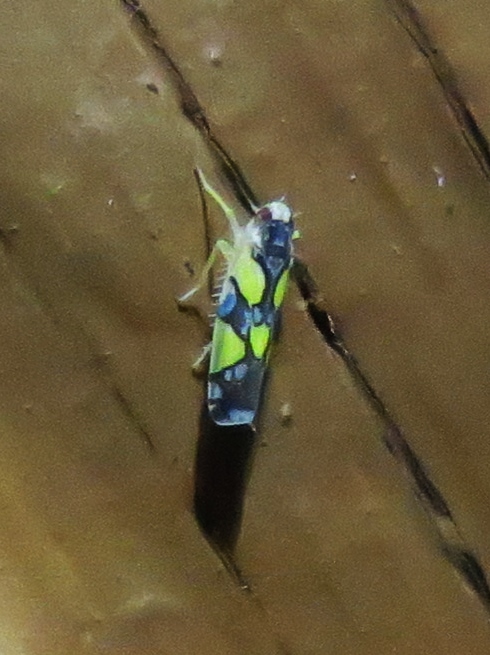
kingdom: Animalia
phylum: Arthropoda
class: Insecta
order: Hemiptera
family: Cicadellidae
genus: Protalebrella
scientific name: Protalebrella brasiliensis
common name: Brasilian leafhopper
